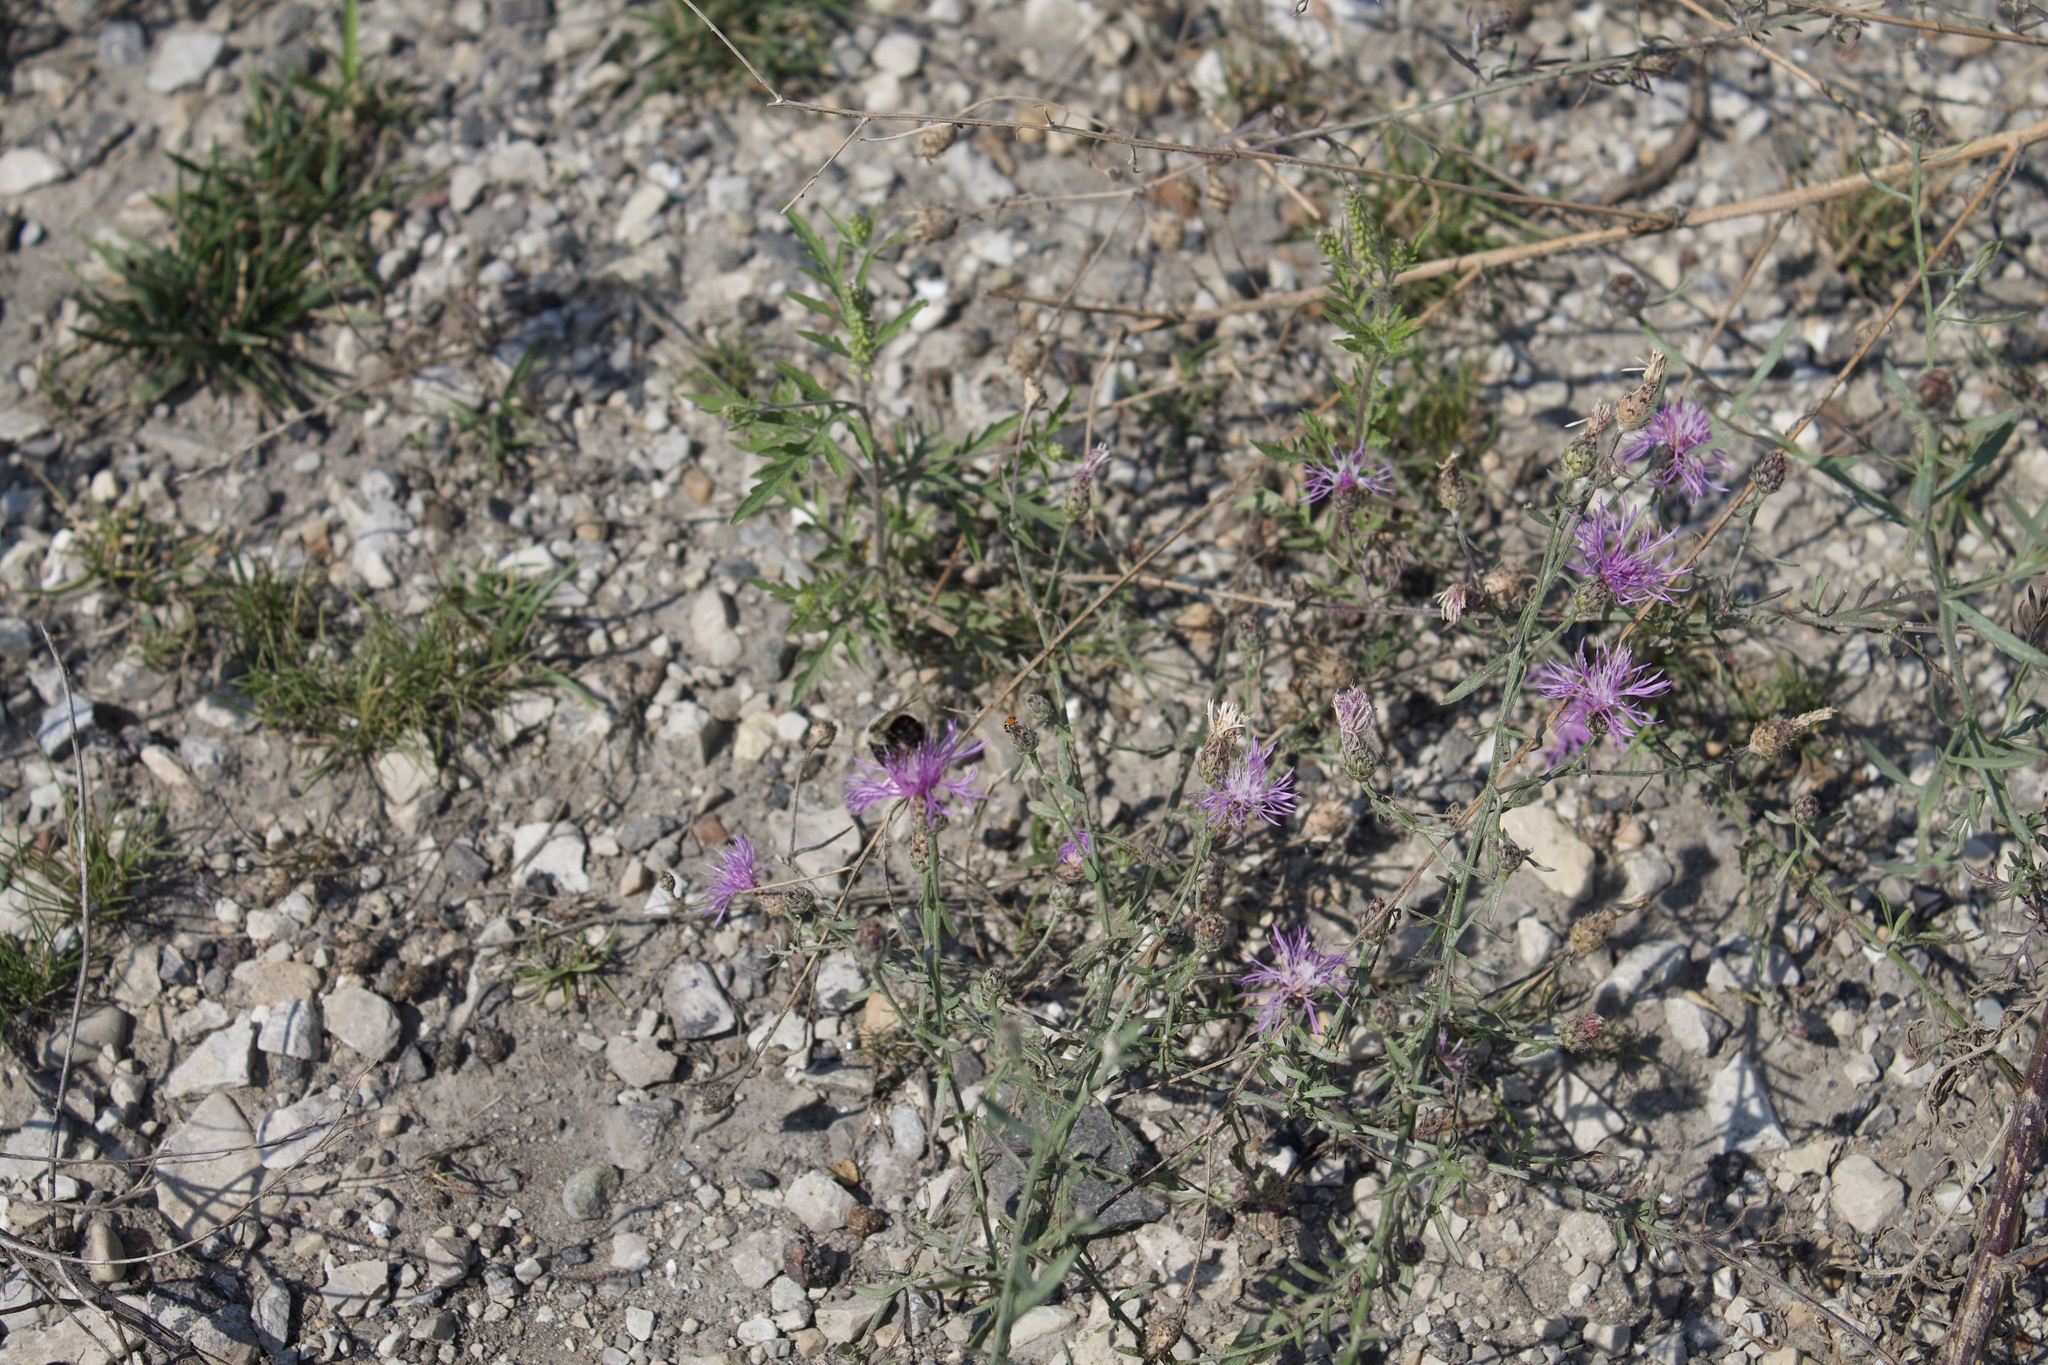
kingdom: Animalia
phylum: Arthropoda
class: Insecta
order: Hymenoptera
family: Apidae
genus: Bombus
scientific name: Bombus impatiens
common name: Common eastern bumble bee
